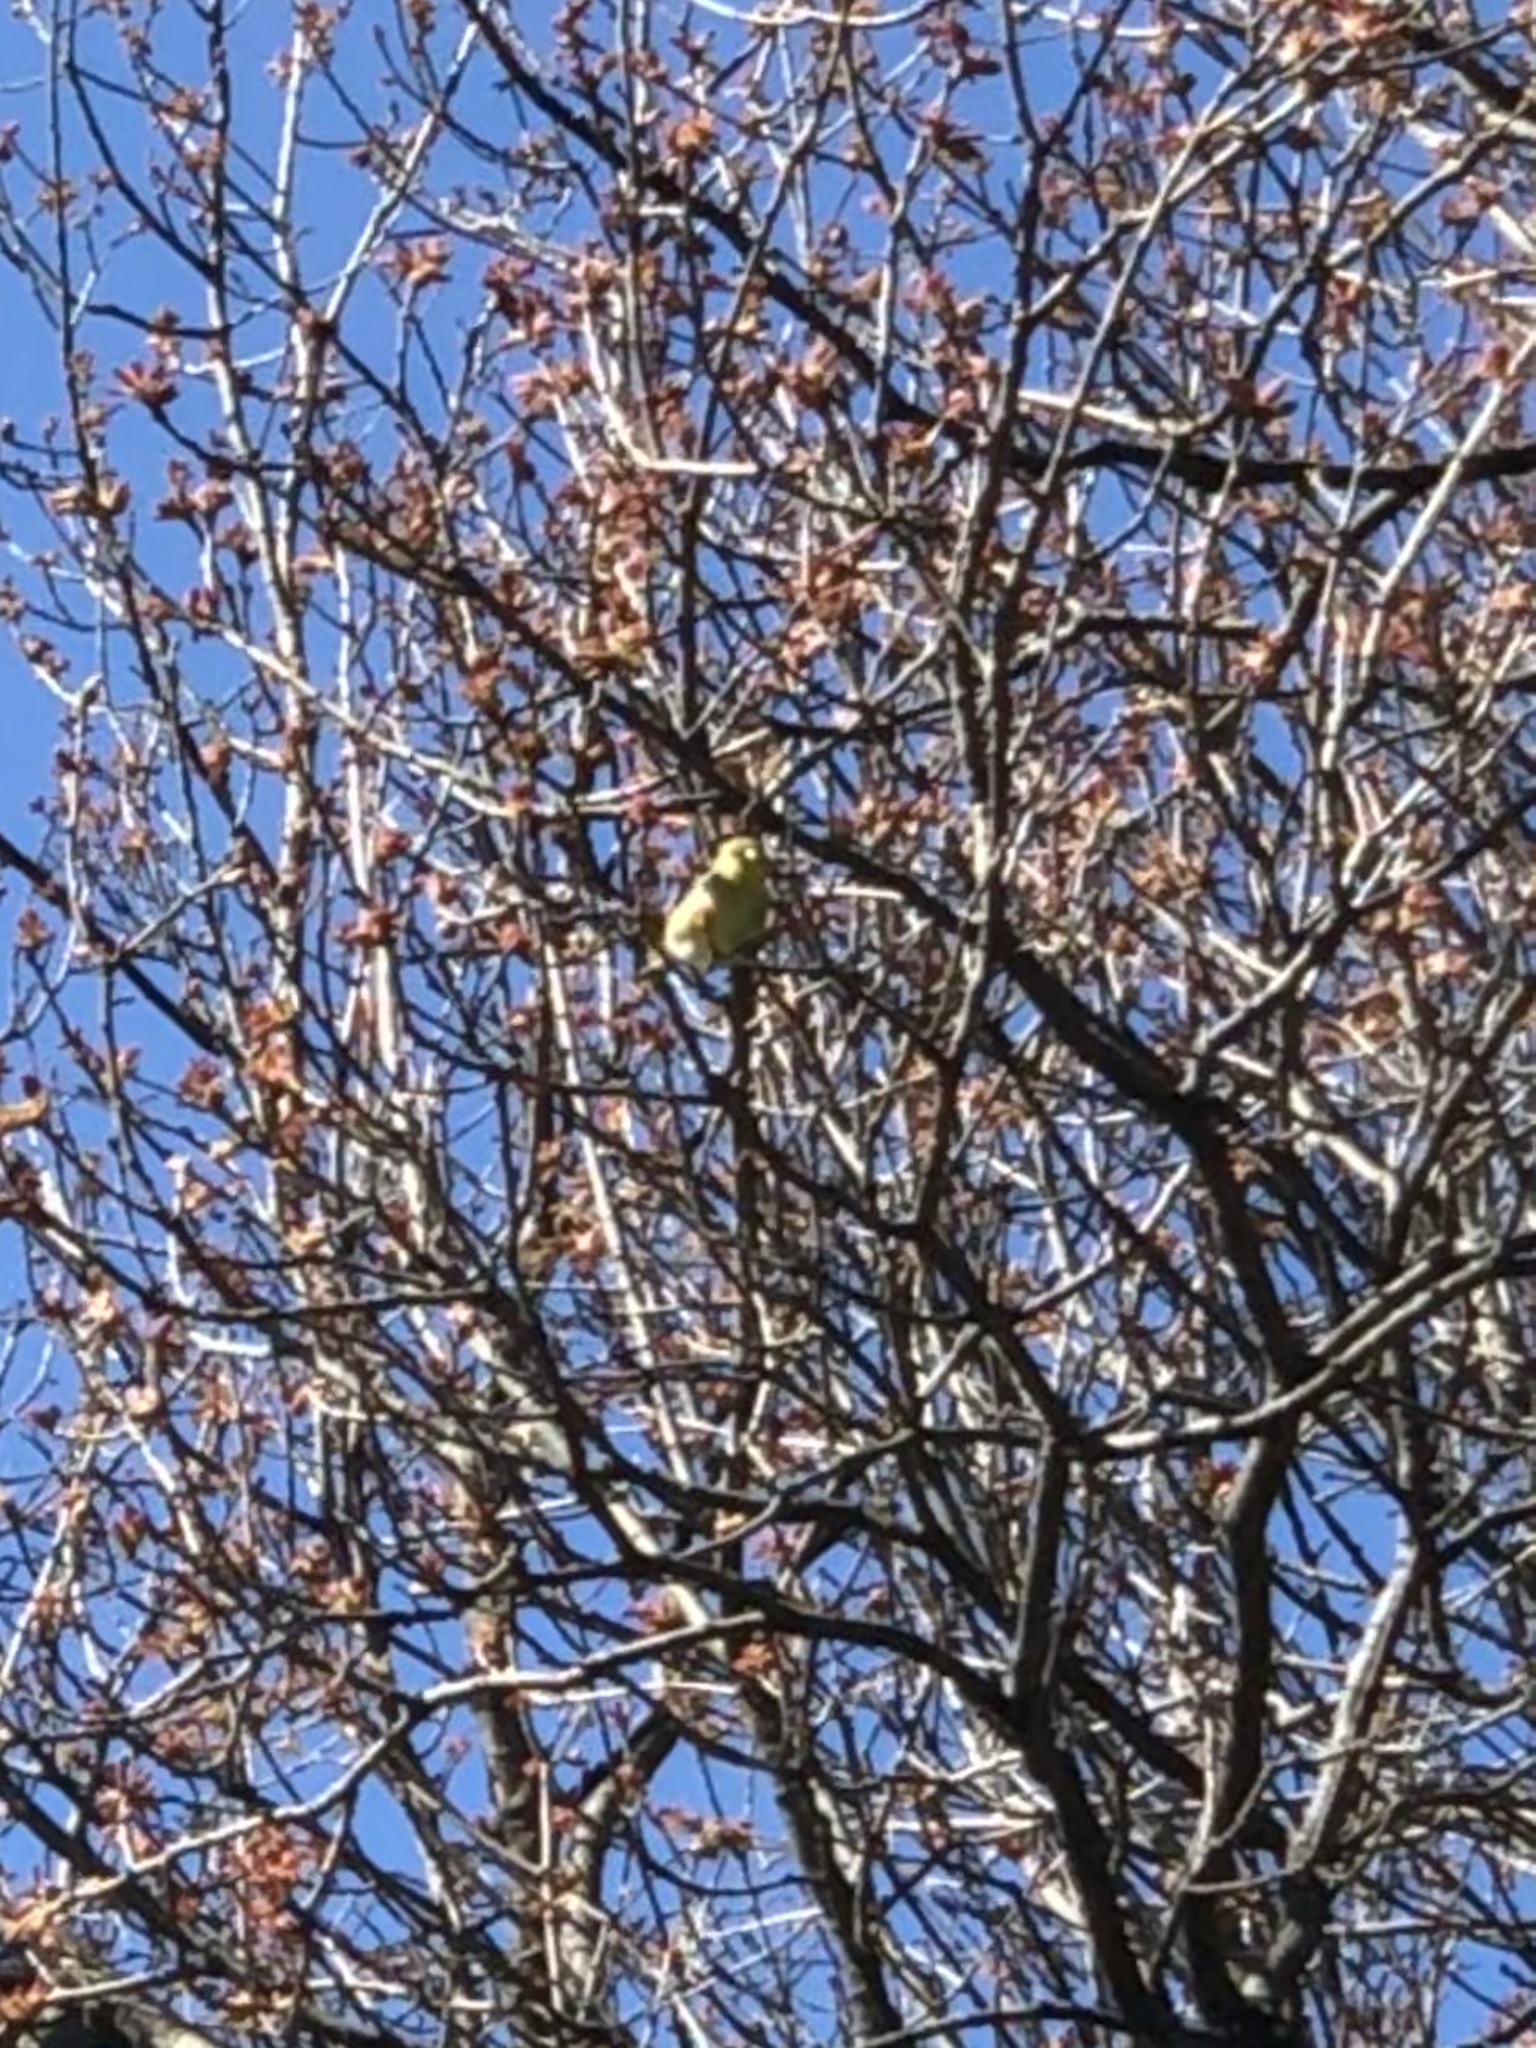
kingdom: Animalia
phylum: Chordata
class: Aves
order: Passeriformes
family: Fringillidae
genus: Spinus
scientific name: Spinus tristis
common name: American goldfinch
